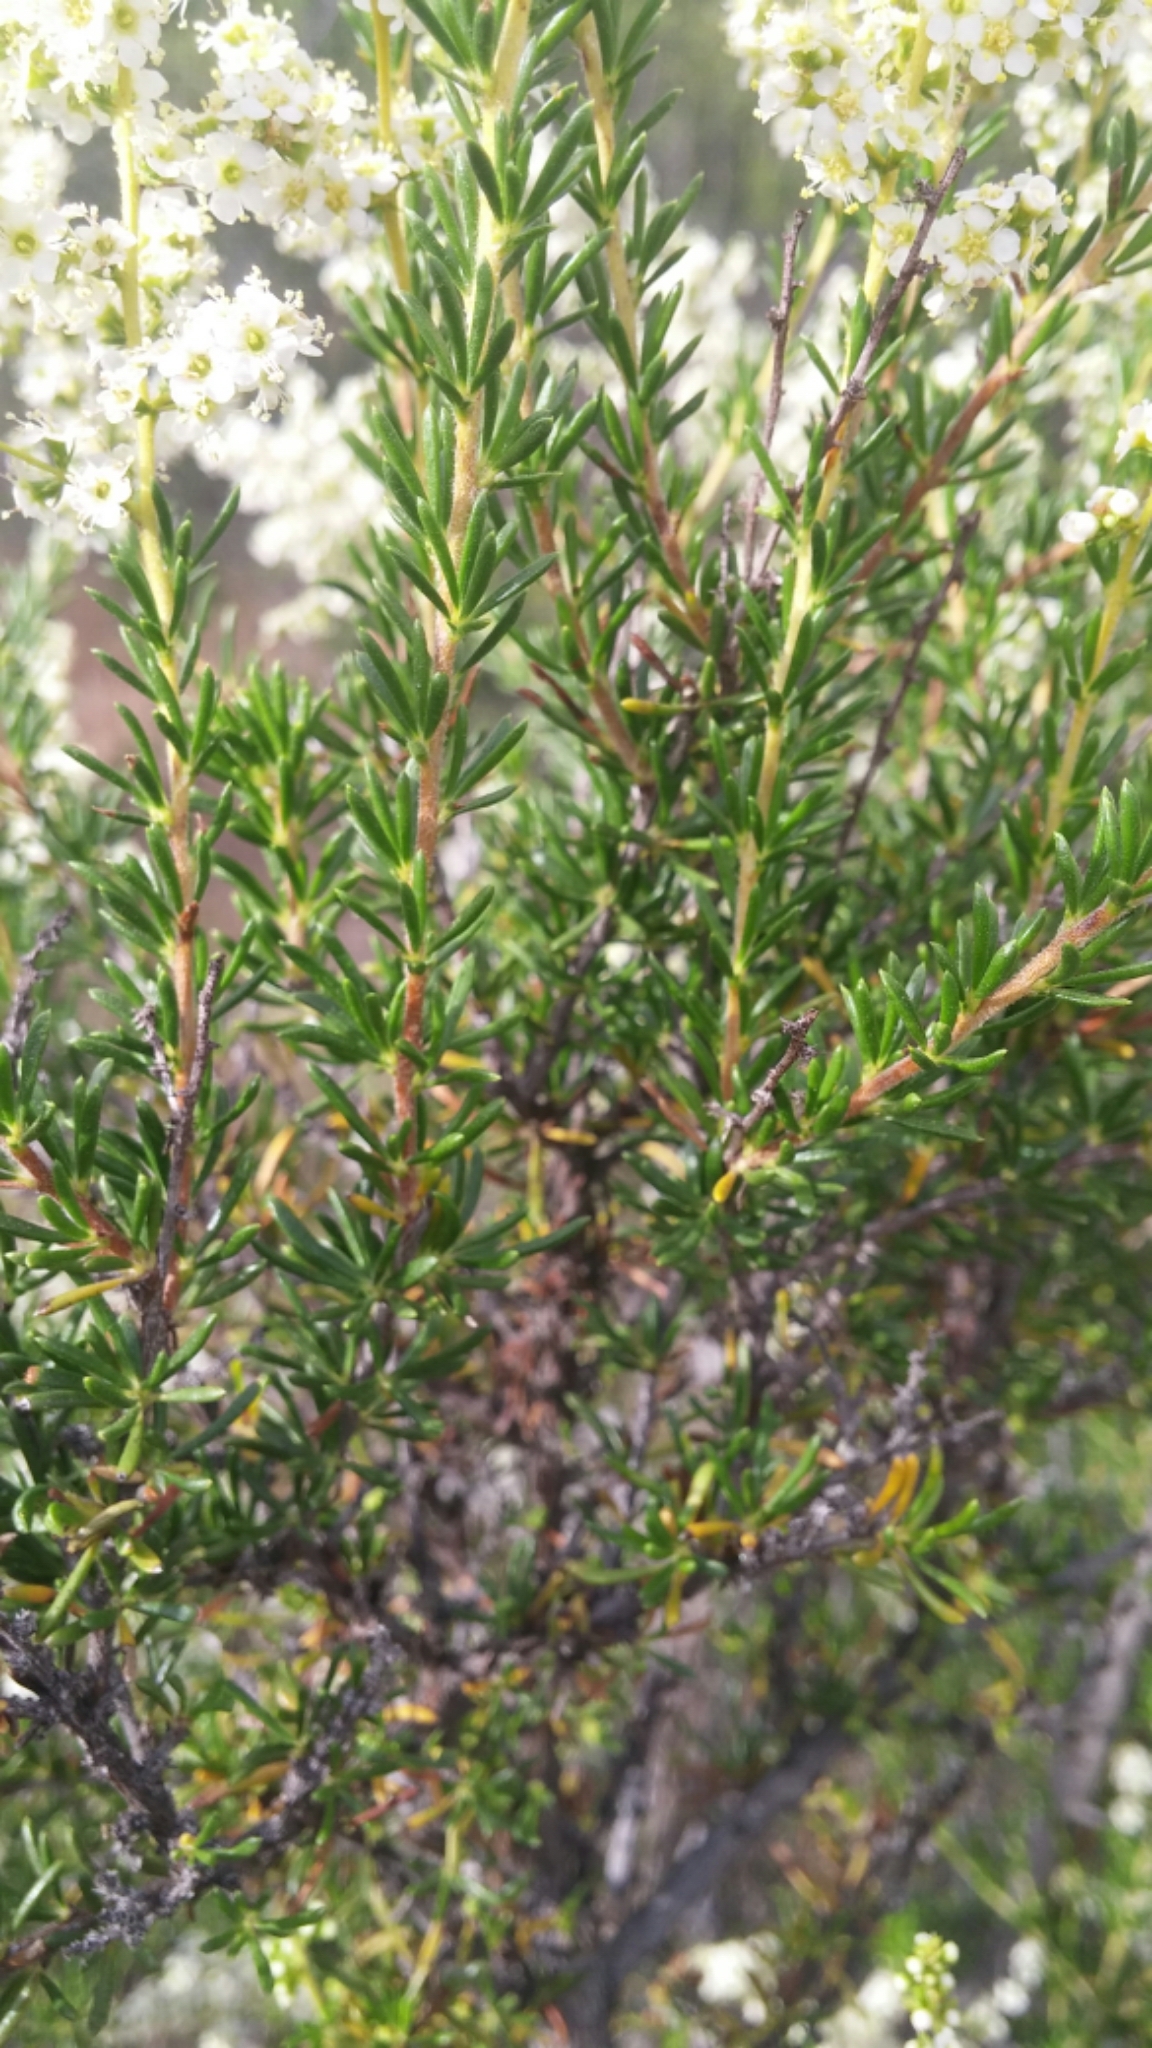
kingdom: Plantae
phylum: Tracheophyta
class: Magnoliopsida
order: Rosales
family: Rosaceae
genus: Adenostoma
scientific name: Adenostoma fasciculatum
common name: Chamise
